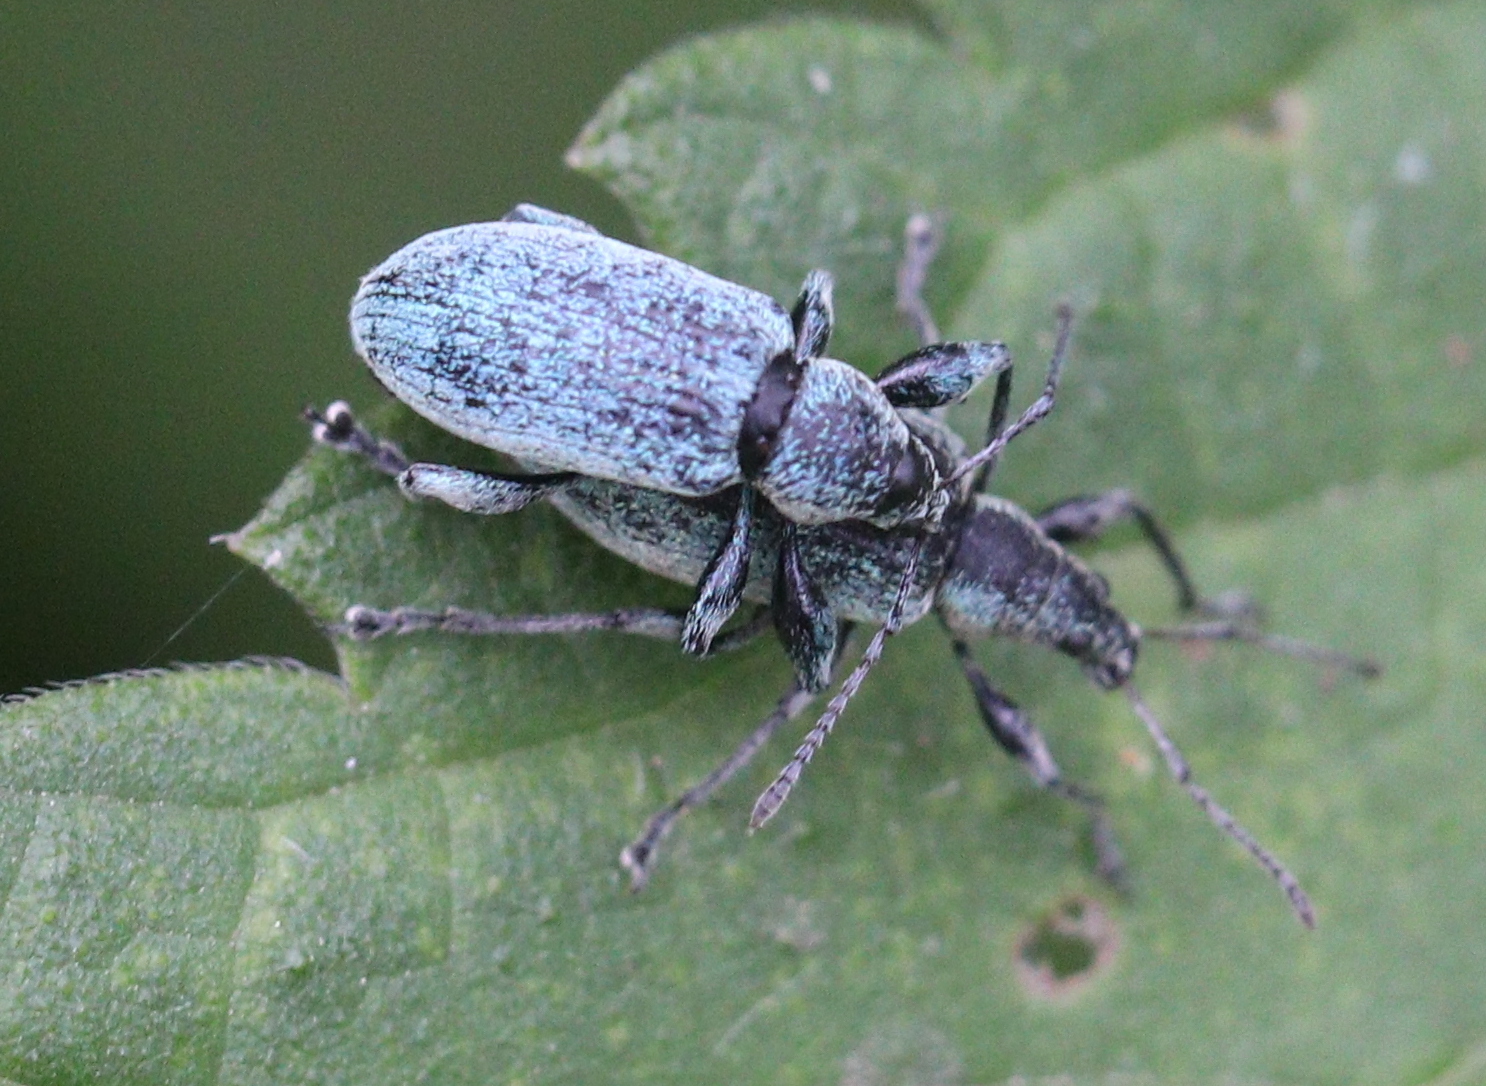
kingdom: Animalia
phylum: Arthropoda
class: Insecta
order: Coleoptera
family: Curculionidae
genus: Phyllobius
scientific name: Phyllobius pomaceus
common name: Green nettle weevil
